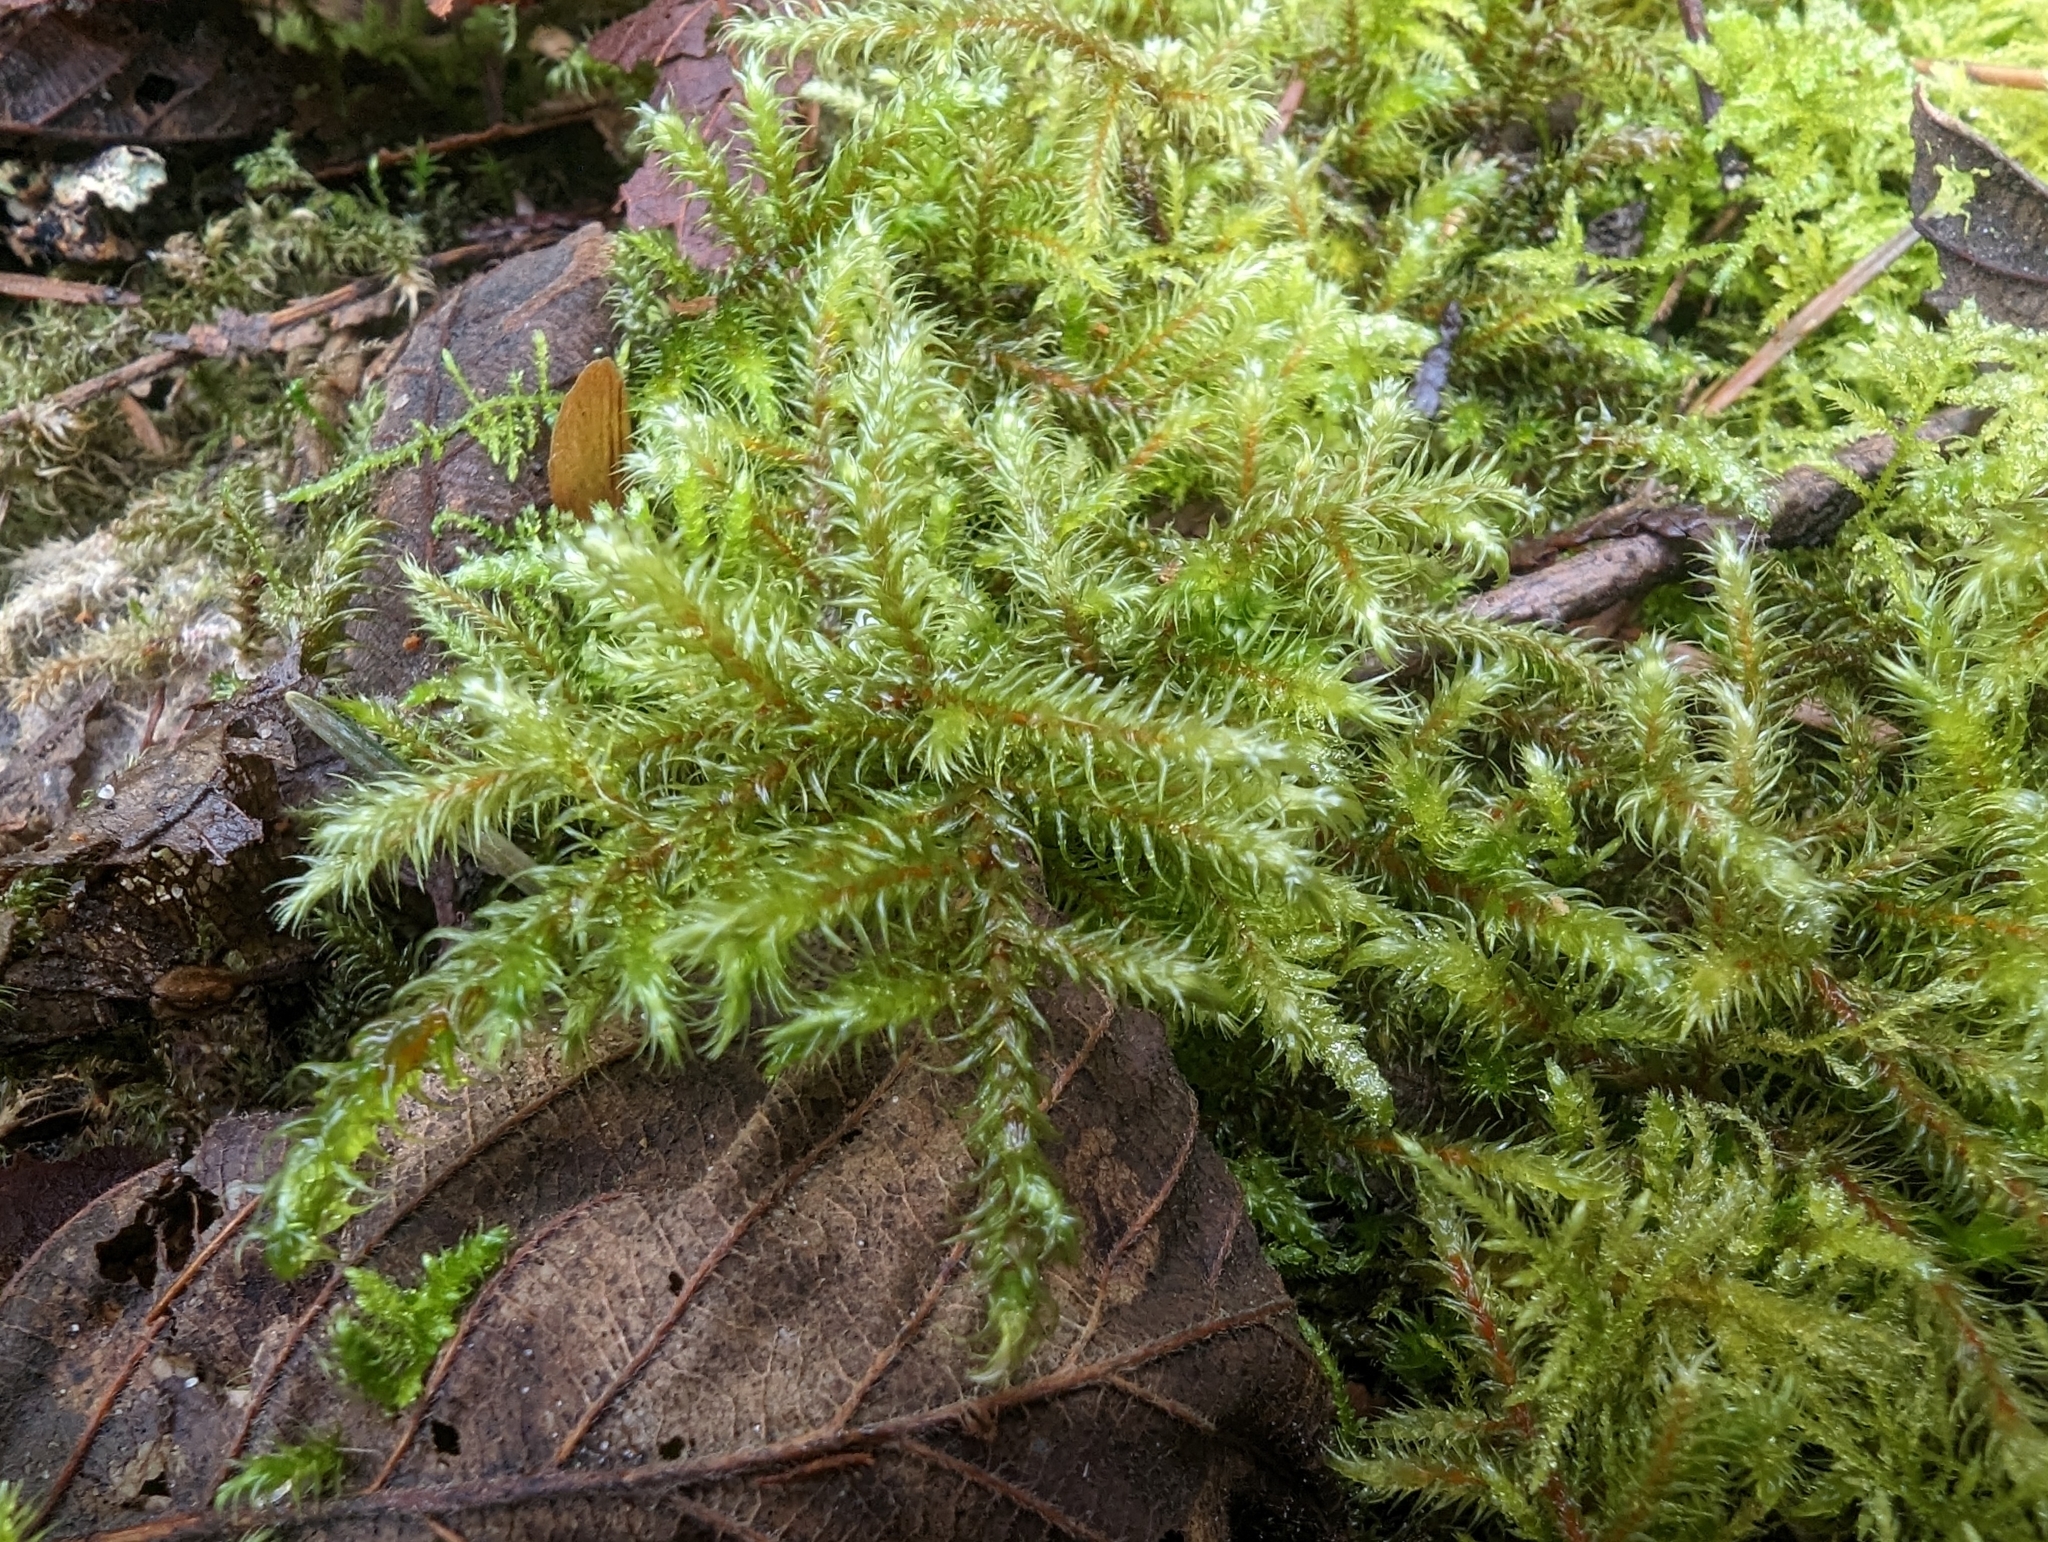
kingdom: Plantae
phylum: Bryophyta
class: Bryopsida
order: Hypnales
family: Hylocomiaceae
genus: Rhytidiadelphus
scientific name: Rhytidiadelphus loreus
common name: Lanky moss
